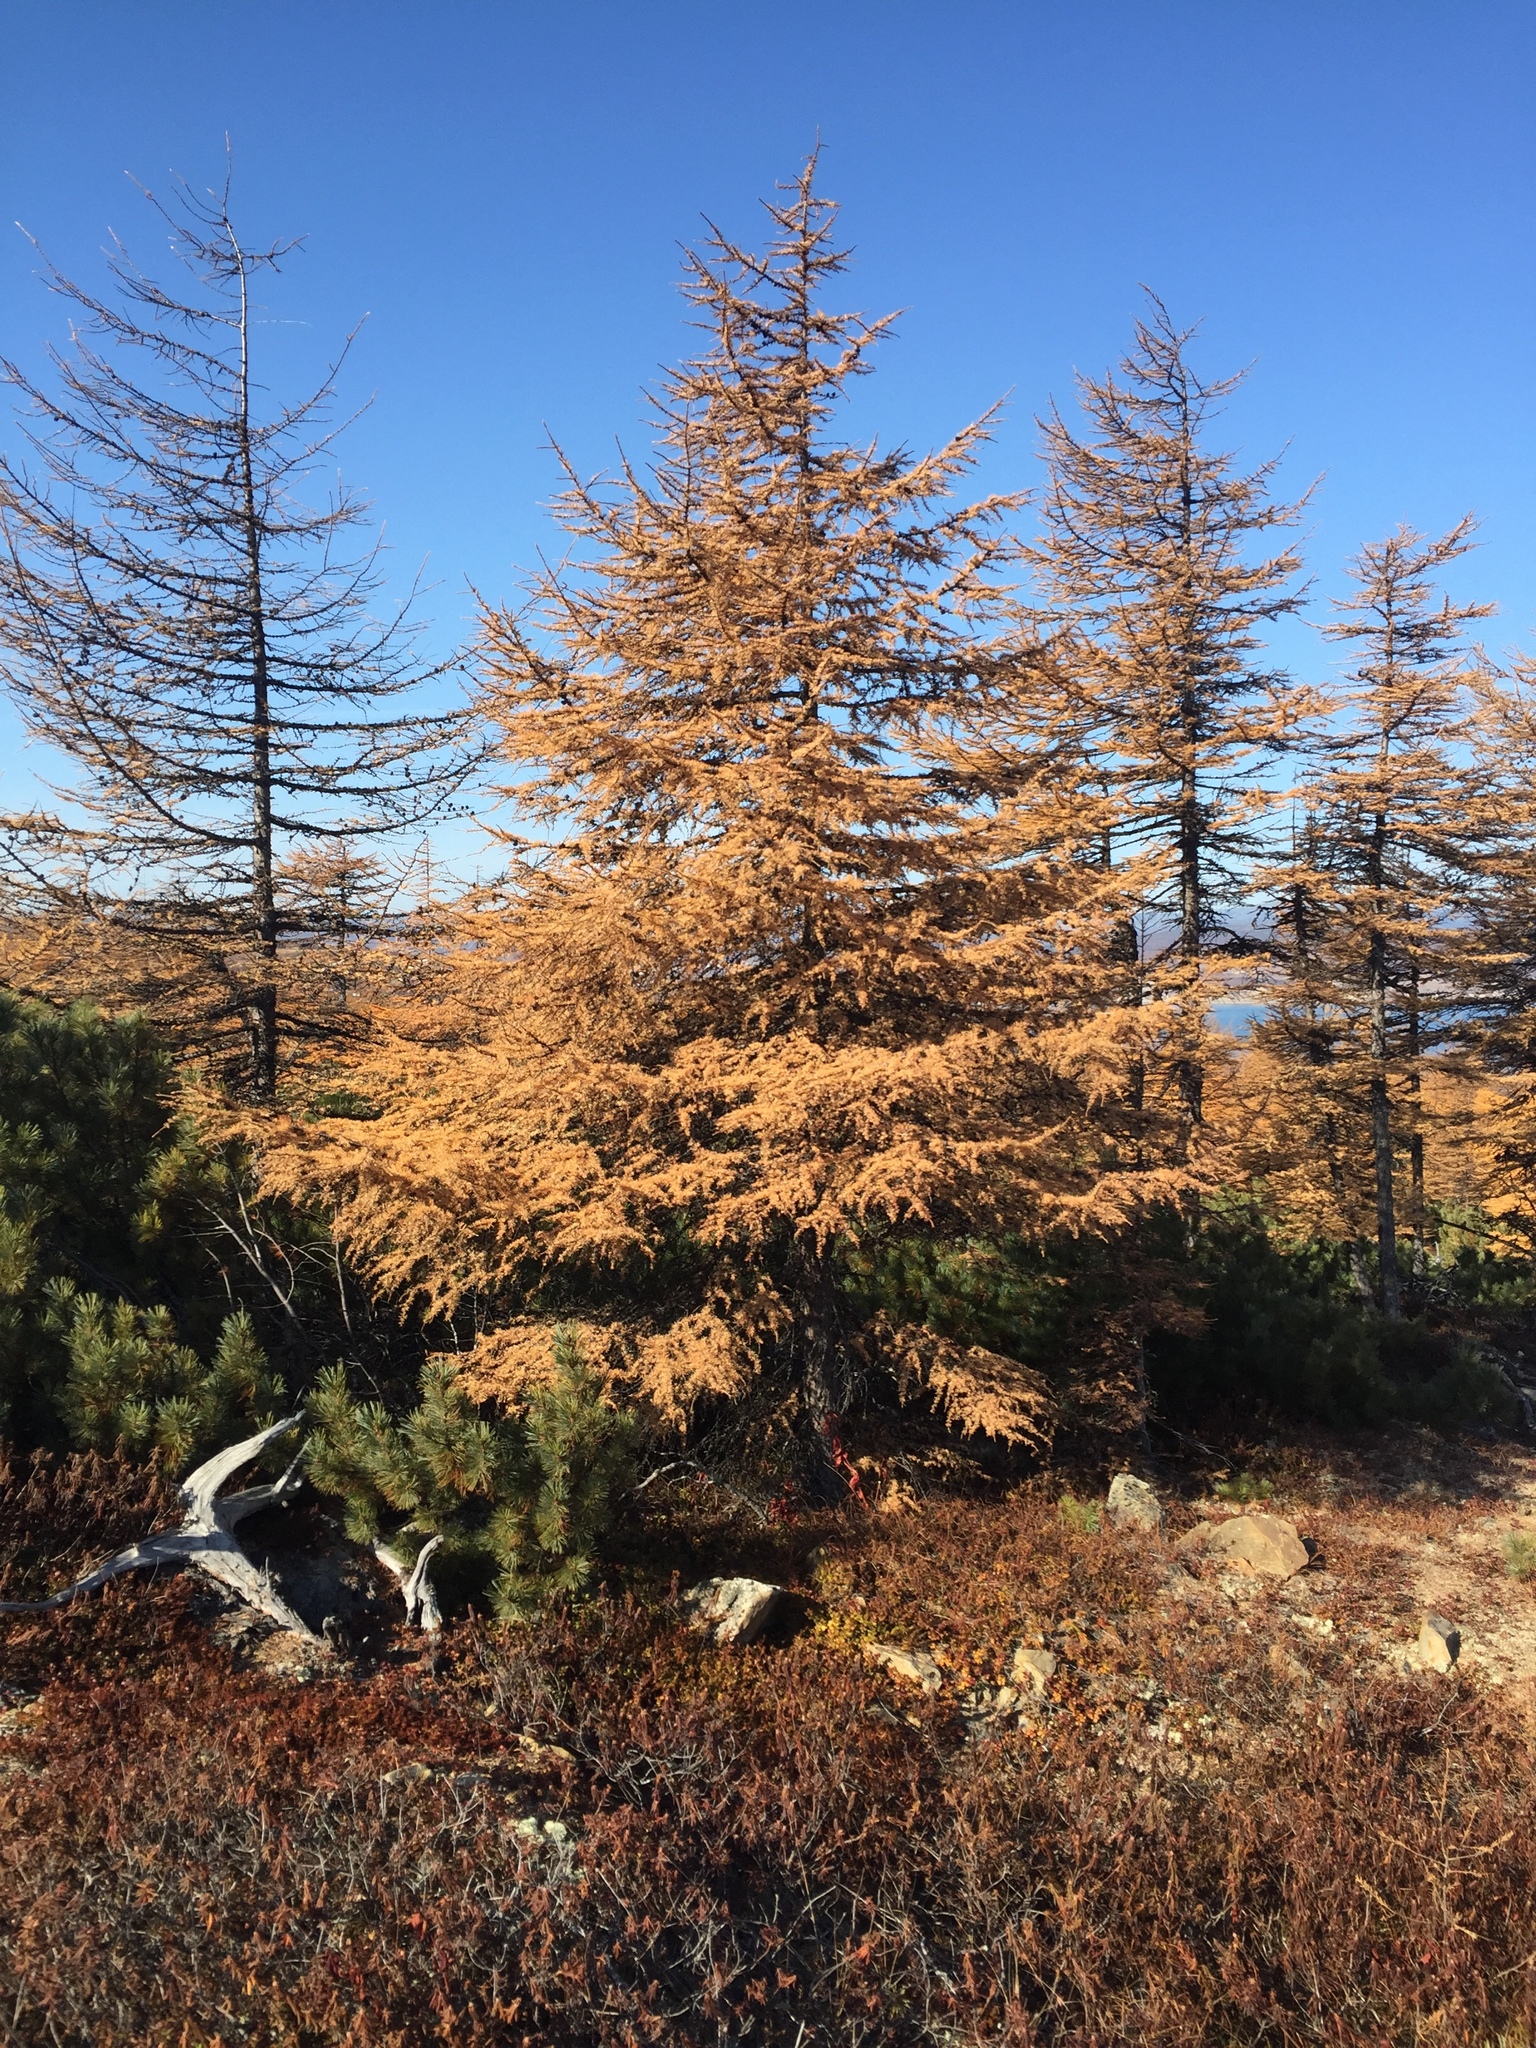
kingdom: Plantae
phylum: Tracheophyta
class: Pinopsida
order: Pinales
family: Pinaceae
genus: Larix
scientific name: Larix gmelinii
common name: Dahurian larch
